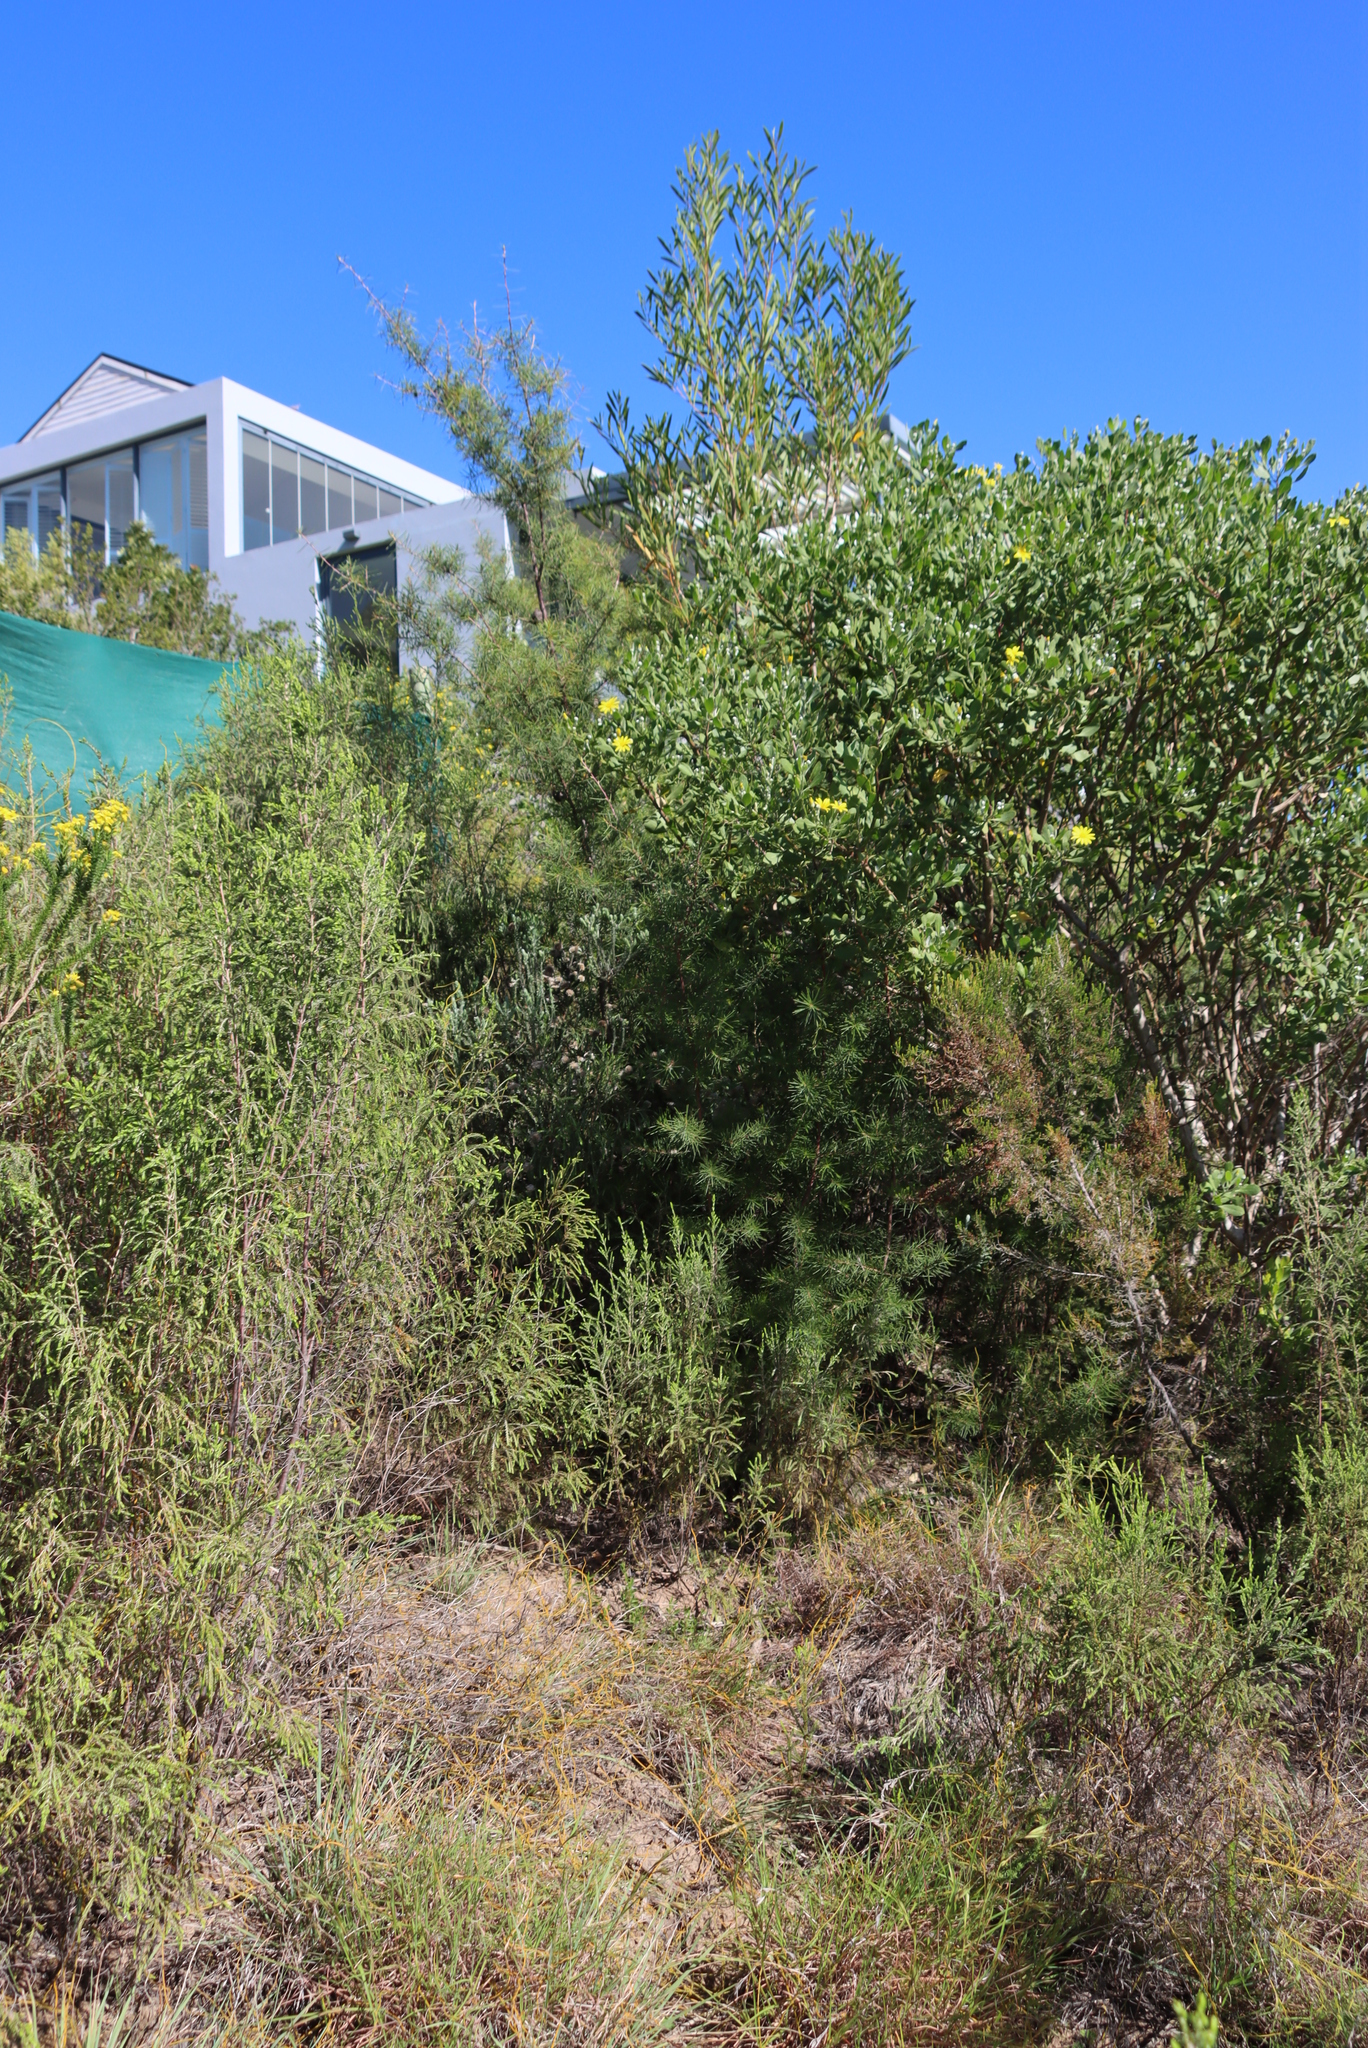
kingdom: Plantae
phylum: Tracheophyta
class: Magnoliopsida
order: Proteales
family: Proteaceae
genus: Hakea
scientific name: Hakea sericea
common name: Needle bush
